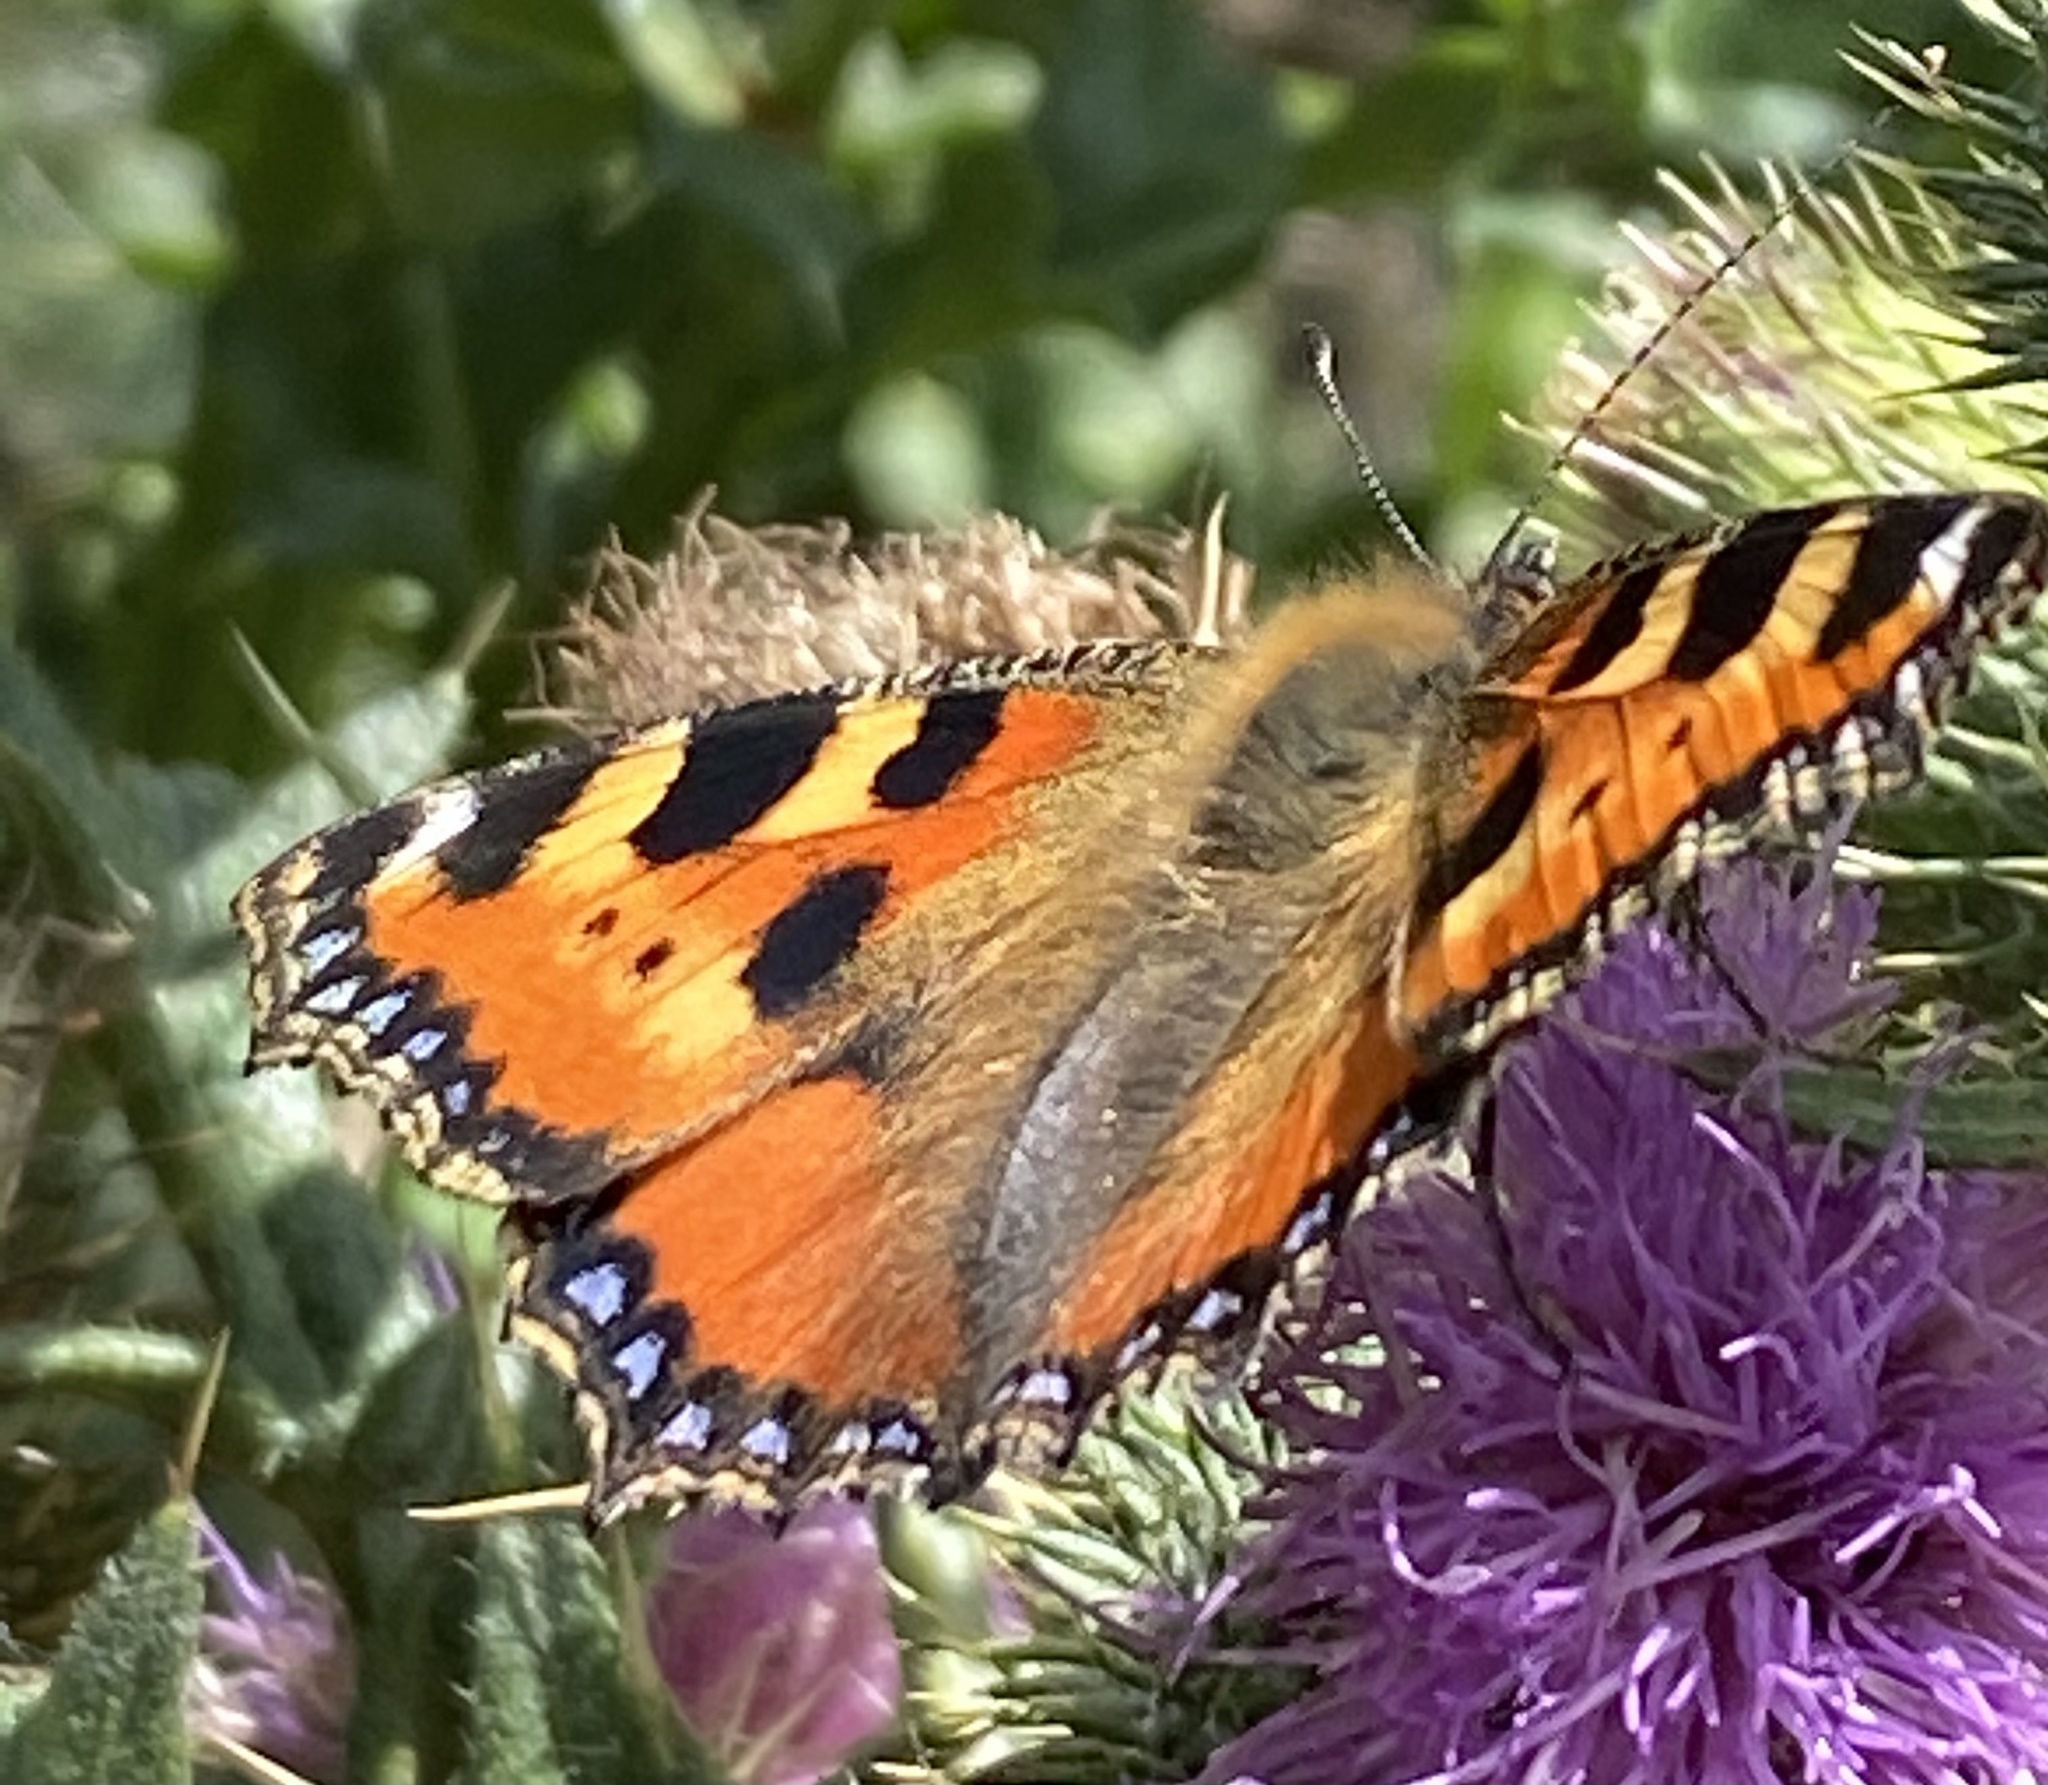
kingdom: Animalia
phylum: Arthropoda
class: Insecta
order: Lepidoptera
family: Nymphalidae
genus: Aglais
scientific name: Aglais urticae
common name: Small tortoiseshell
